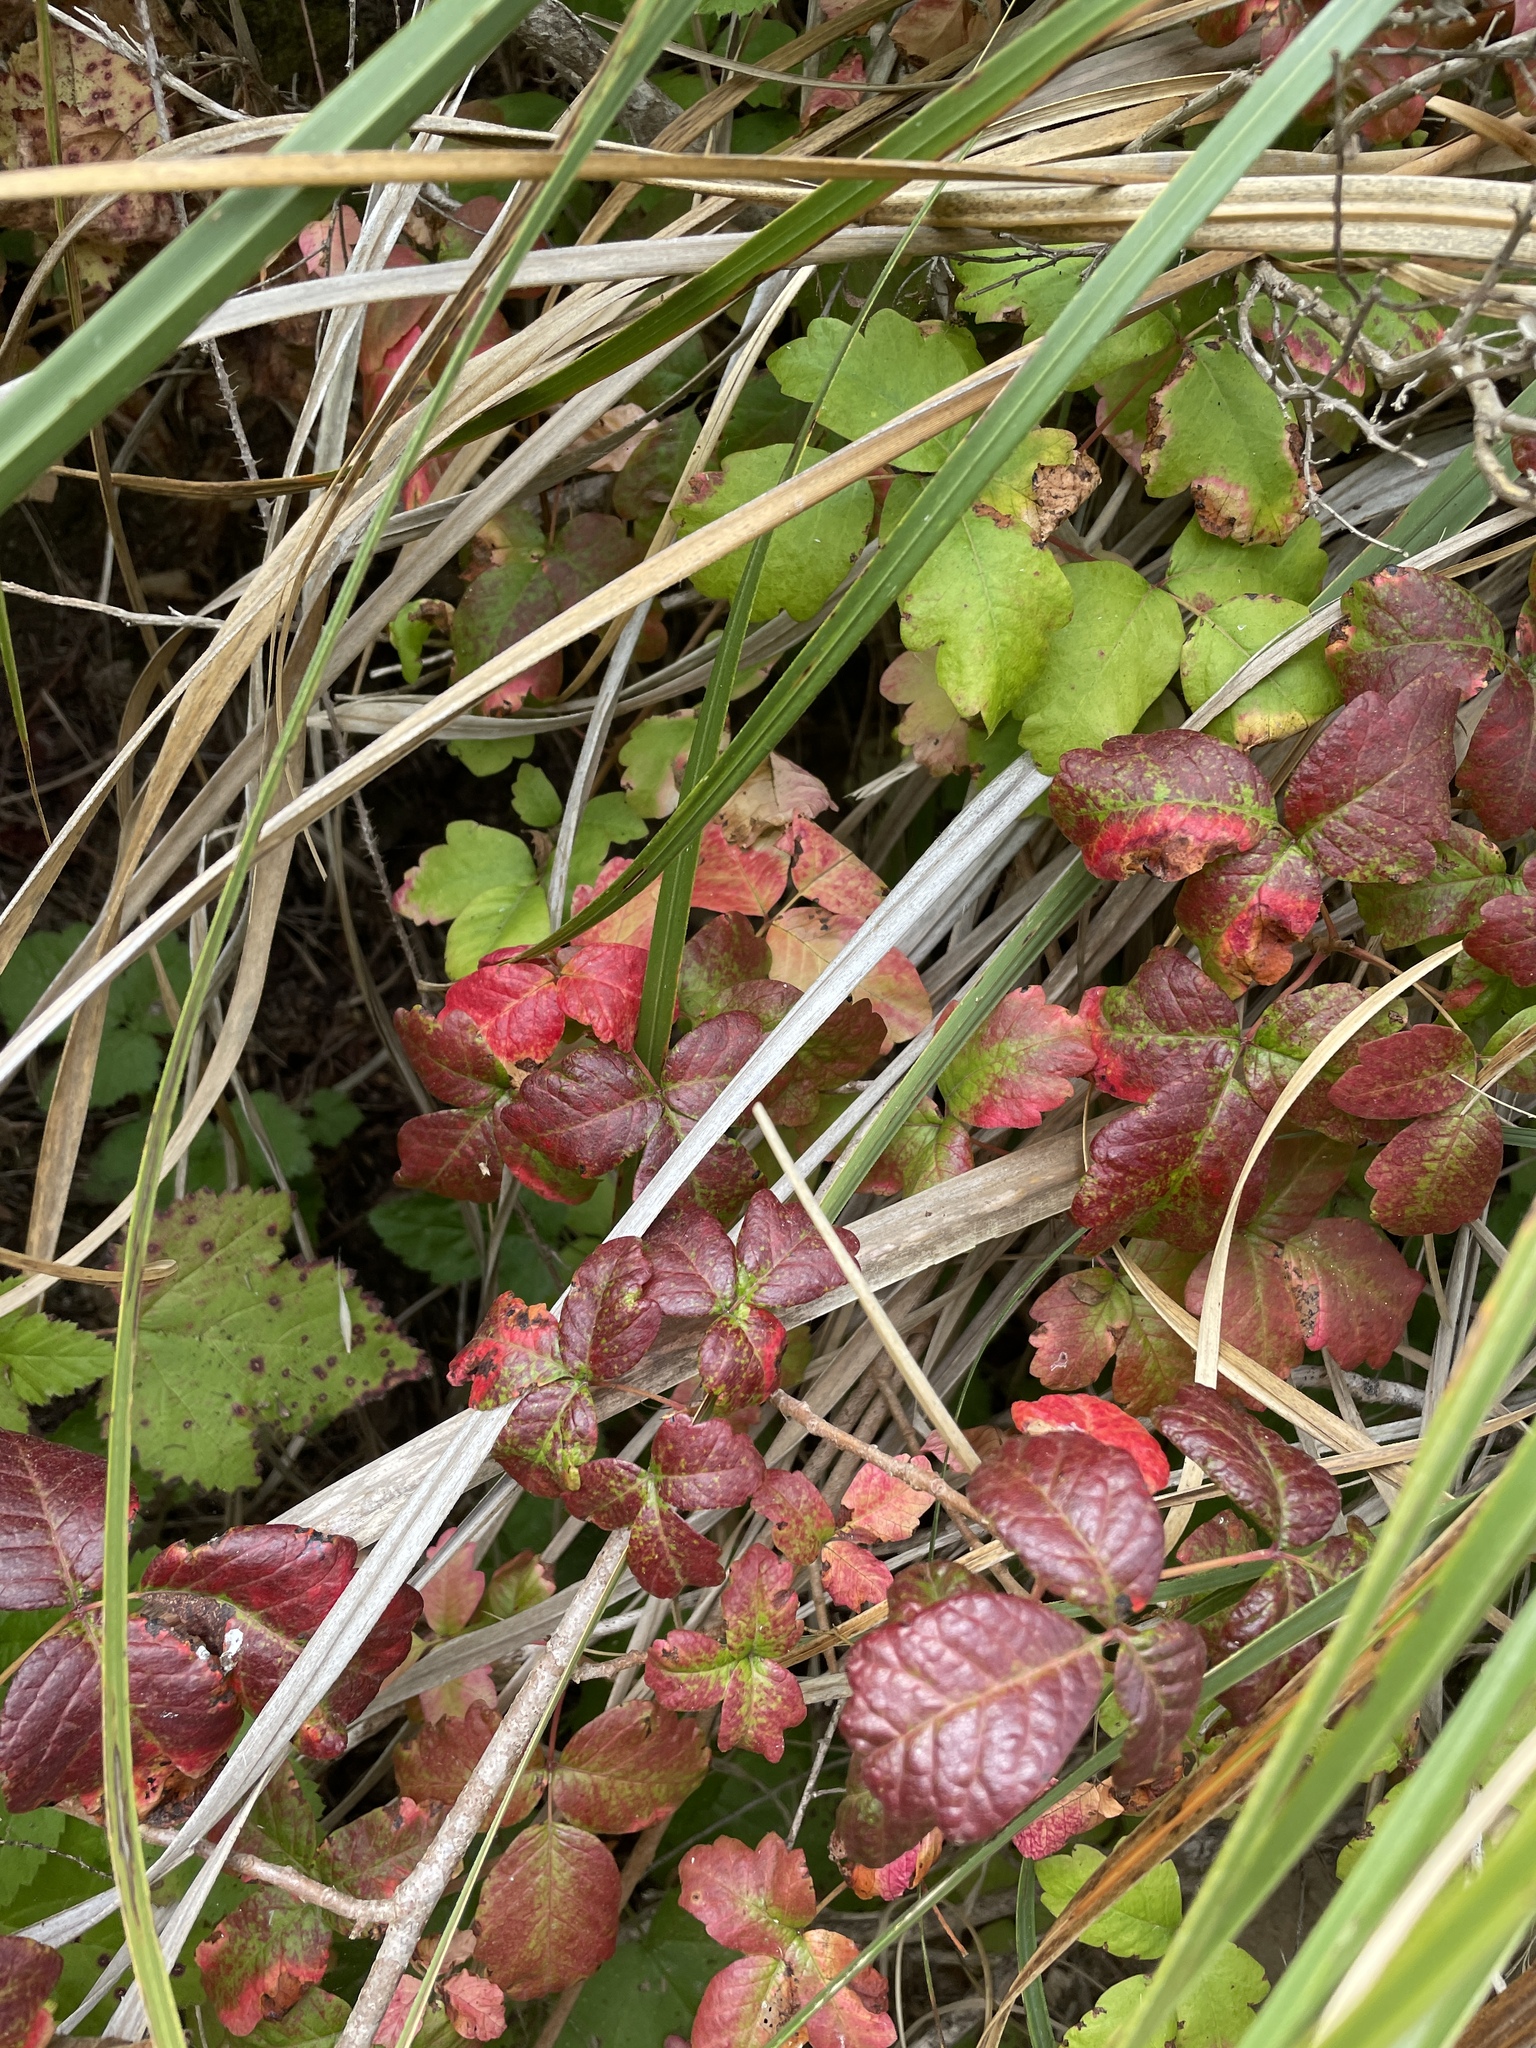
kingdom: Plantae
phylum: Tracheophyta
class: Magnoliopsida
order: Sapindales
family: Anacardiaceae
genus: Toxicodendron
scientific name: Toxicodendron diversilobum
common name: Pacific poison-oak
